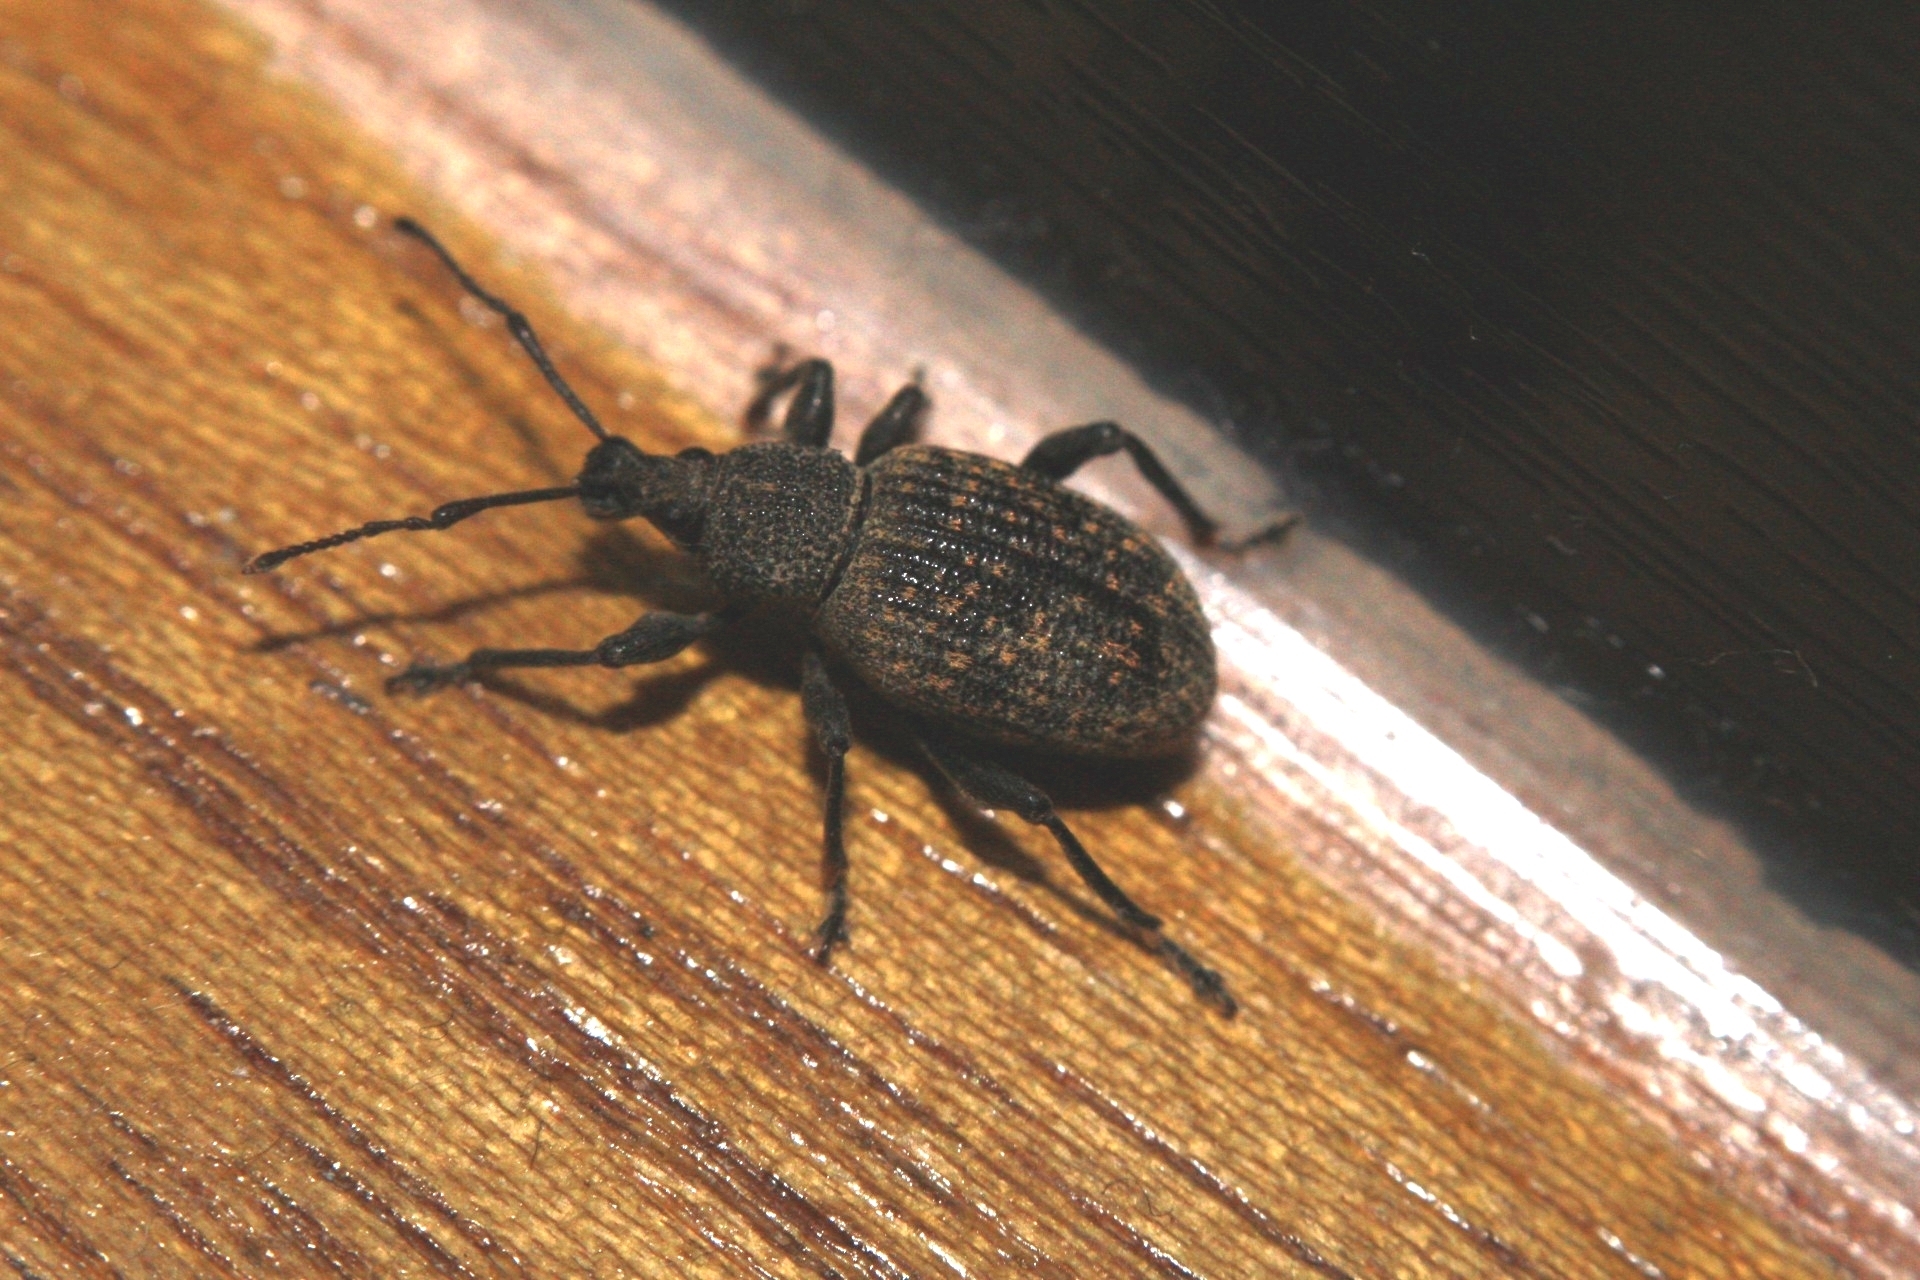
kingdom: Animalia
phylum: Arthropoda
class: Insecta
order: Coleoptera
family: Curculionidae
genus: Otiorhynchus
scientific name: Otiorhynchus sulcatus
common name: Black vine weevil
